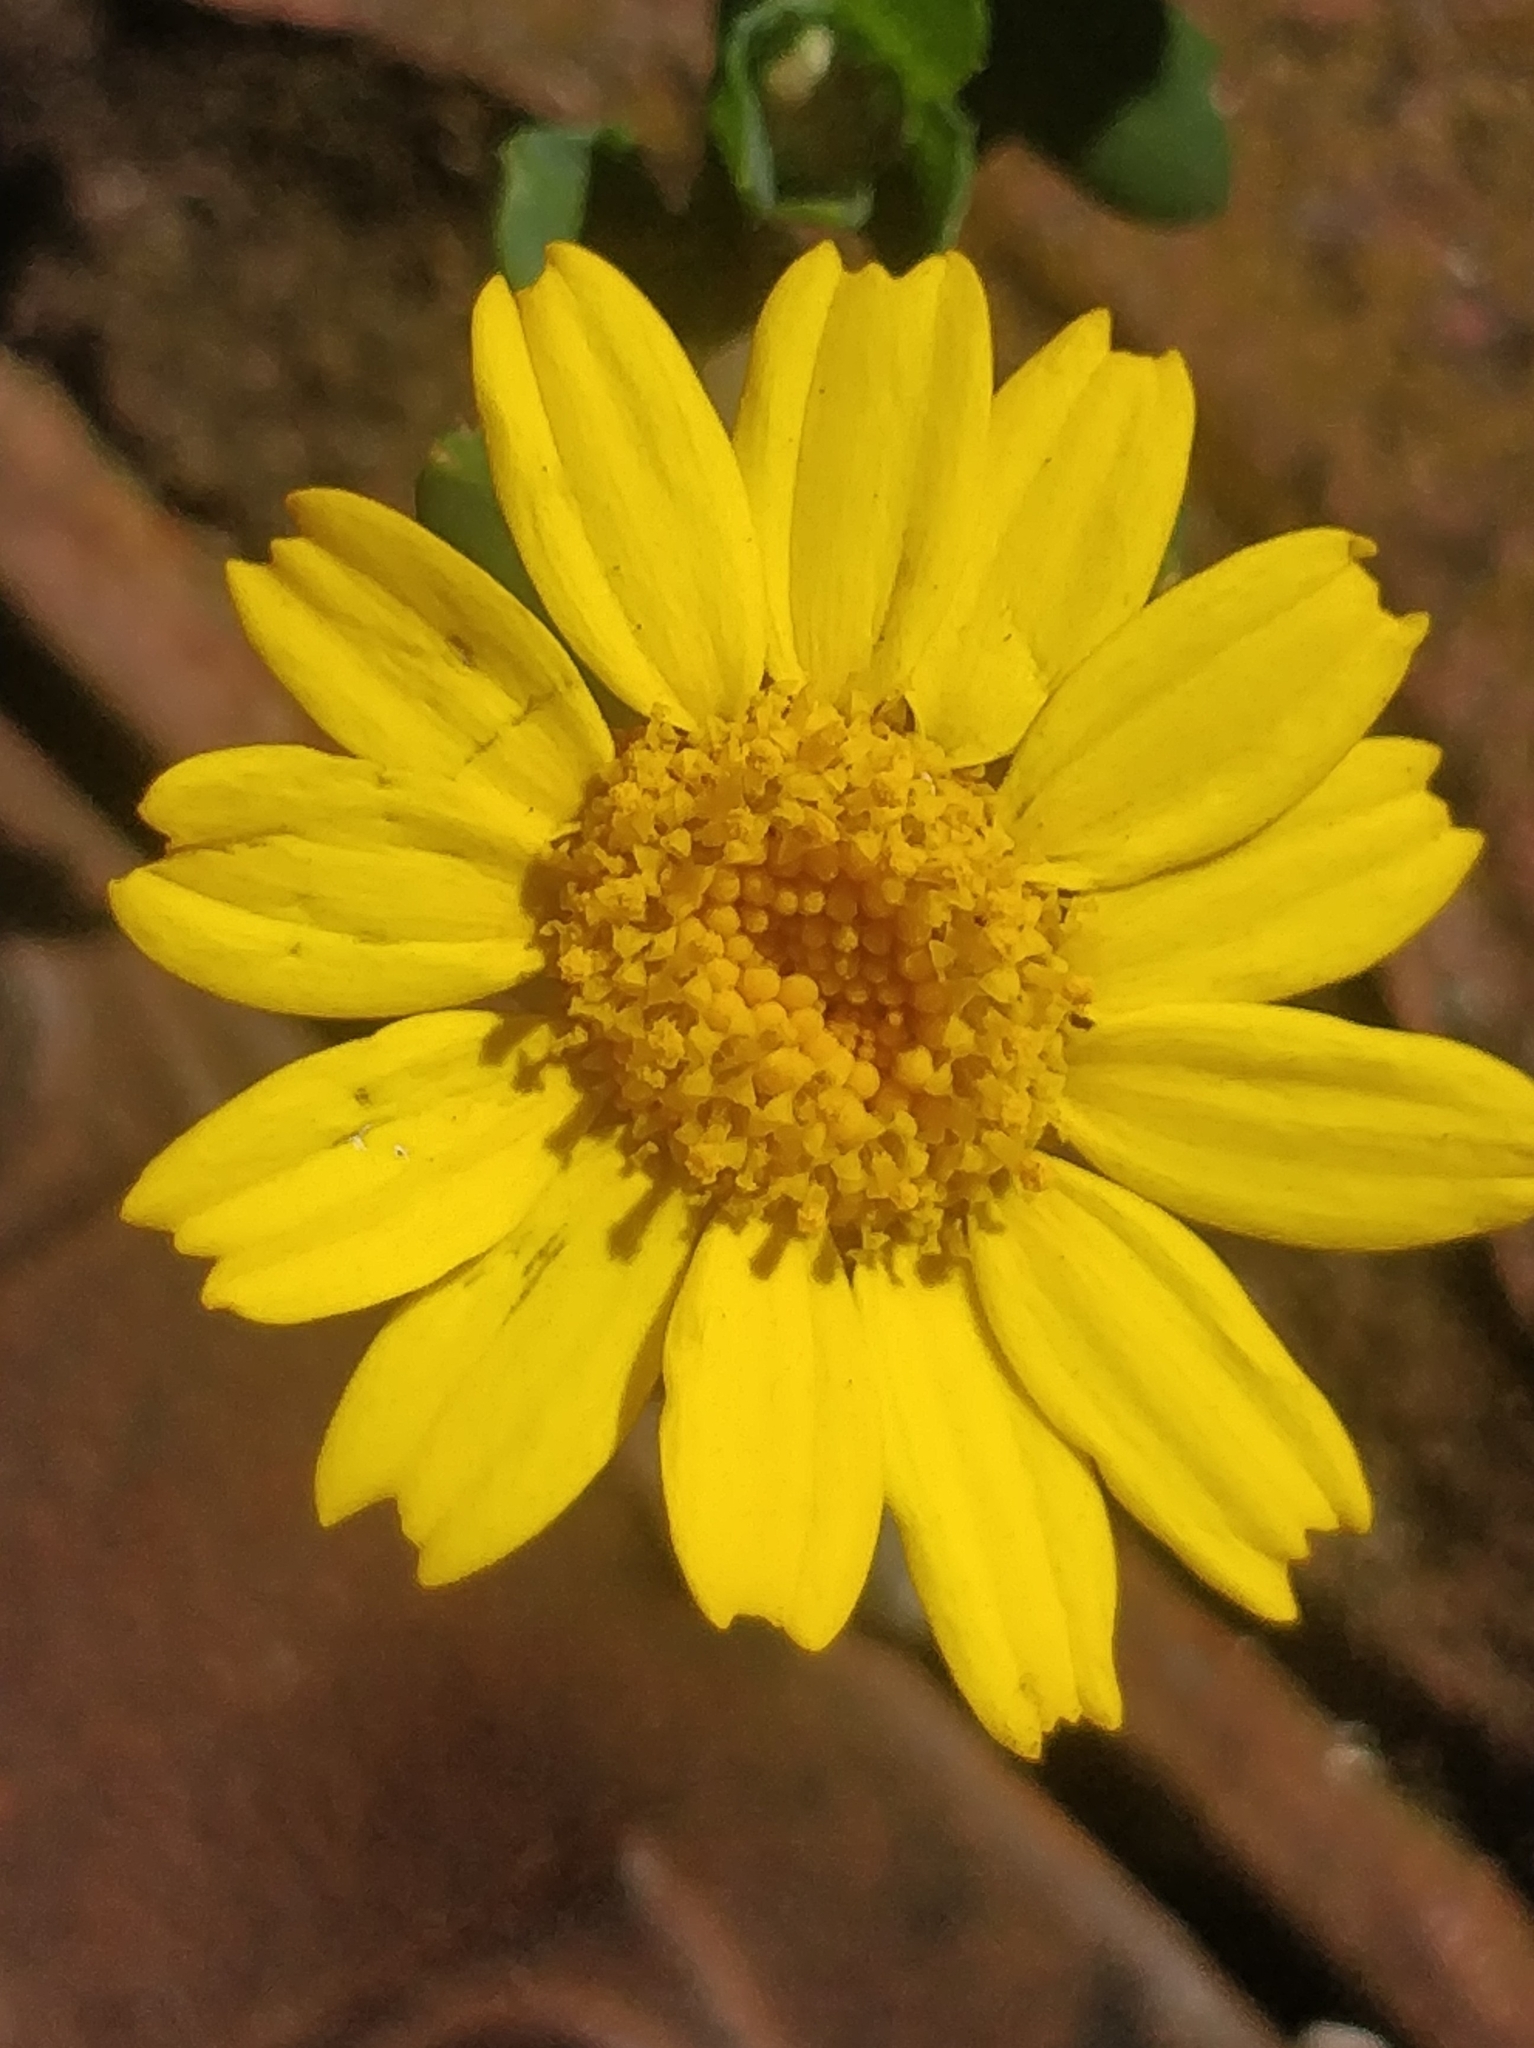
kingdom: Plantae
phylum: Tracheophyta
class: Magnoliopsida
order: Asterales
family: Asteraceae
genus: Glebionis
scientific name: Glebionis segetum
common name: Corndaisy
